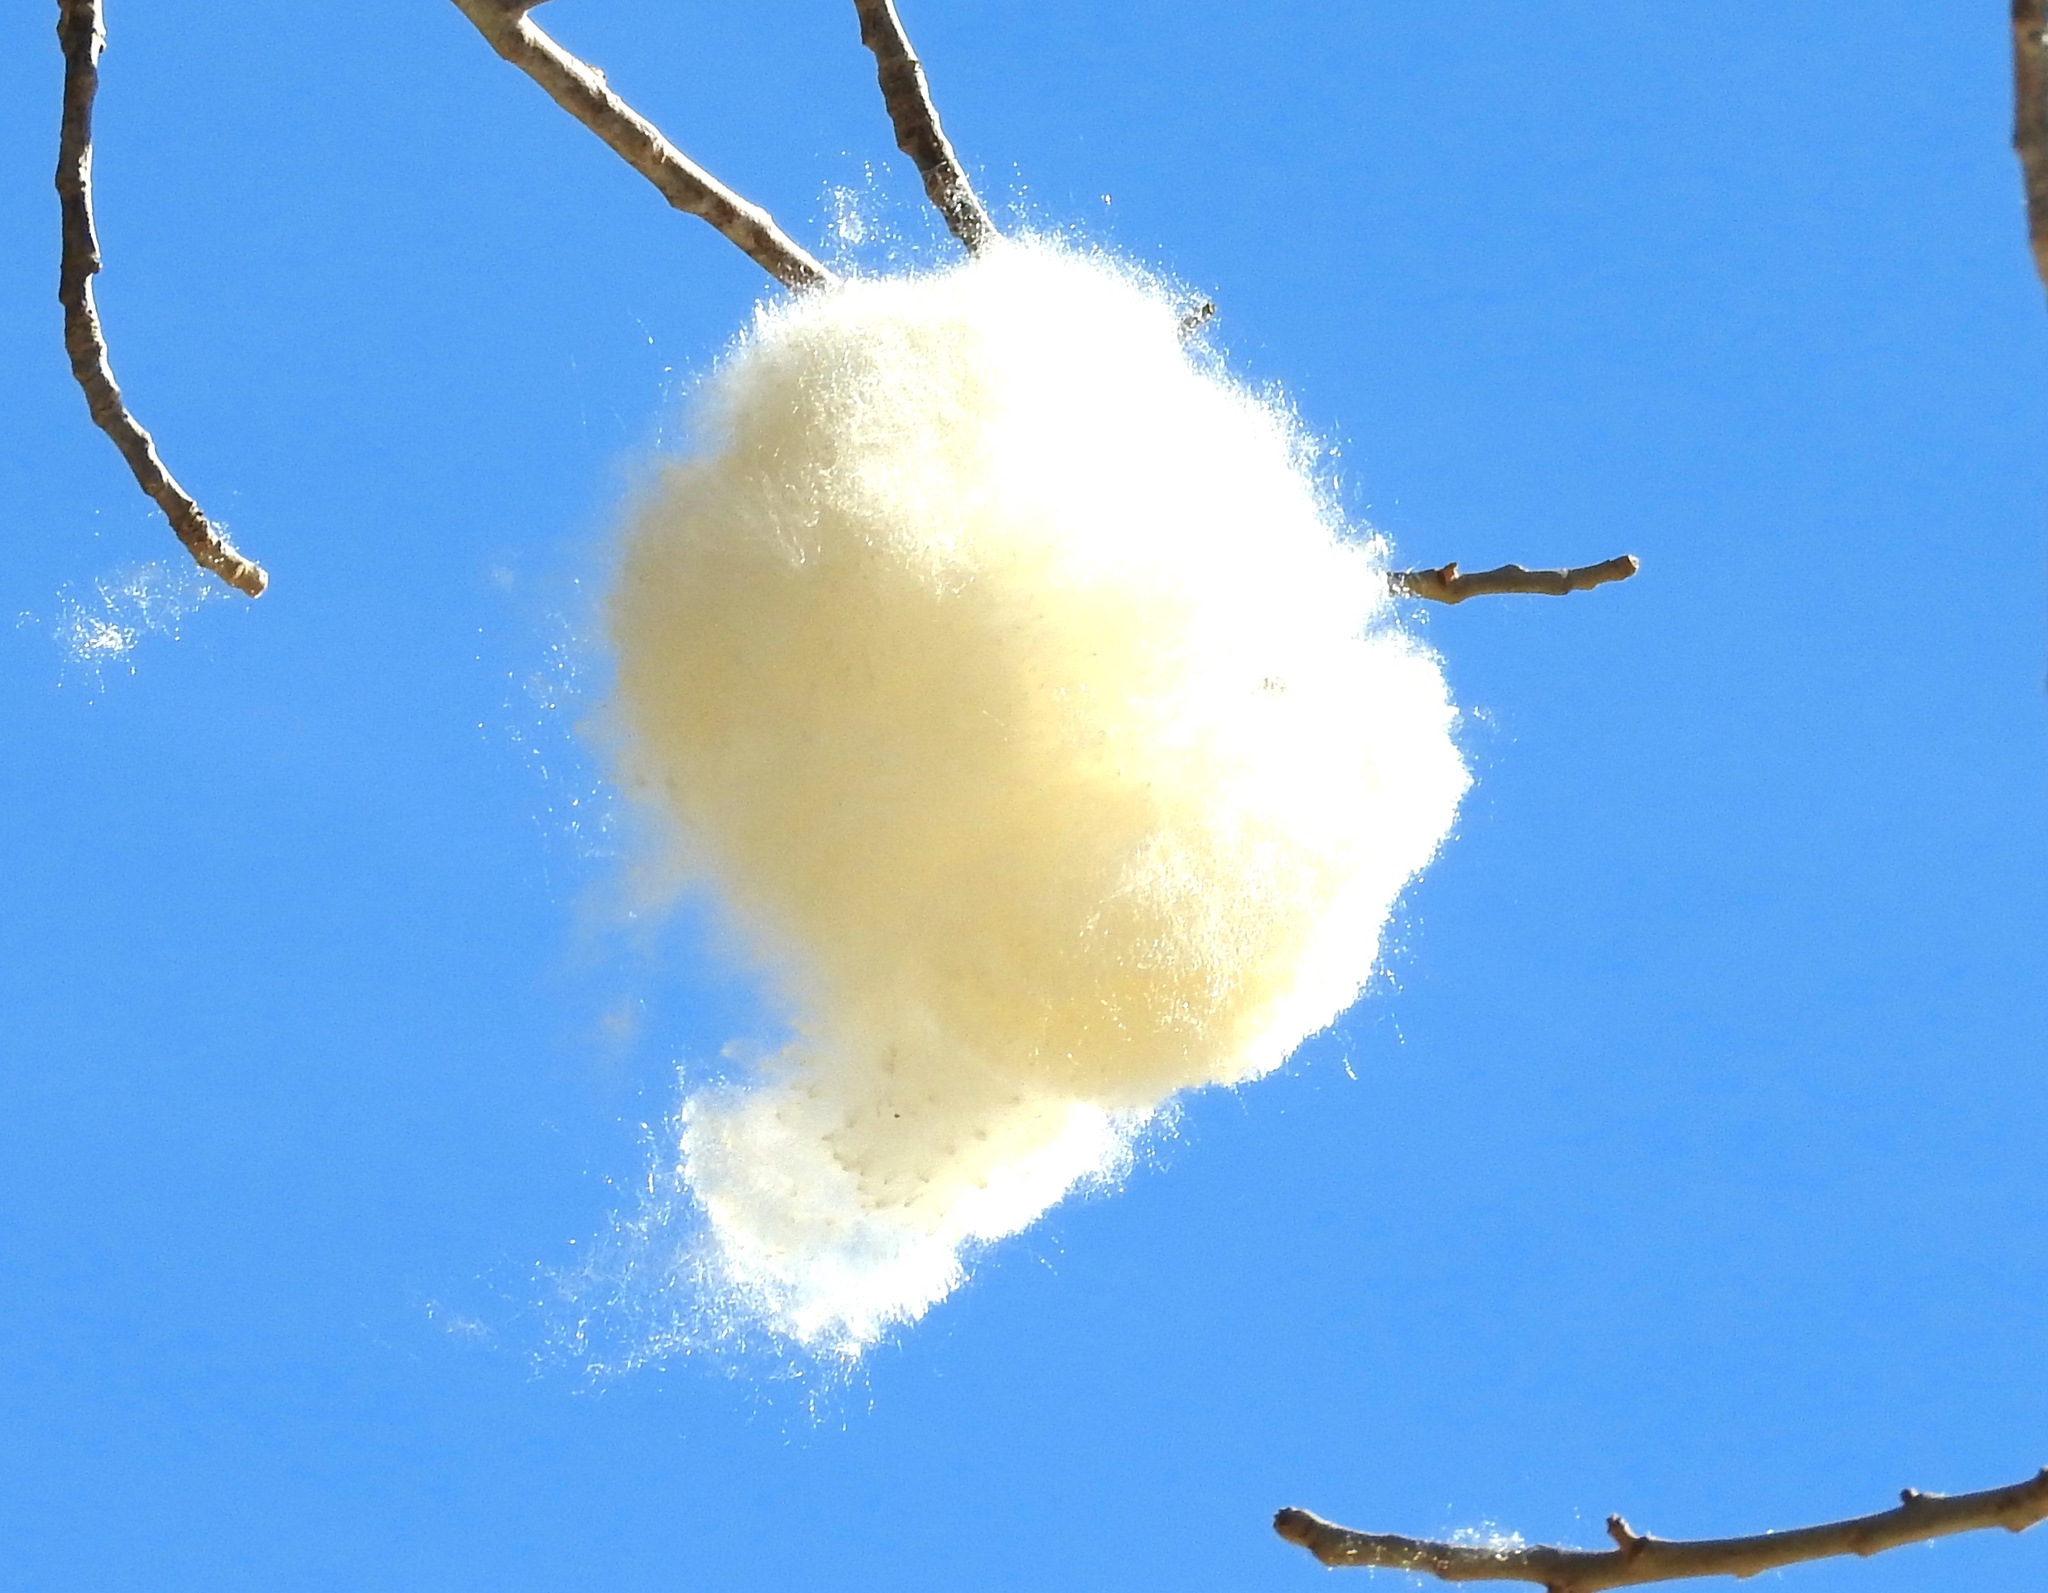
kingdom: Plantae
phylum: Tracheophyta
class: Magnoliopsida
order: Malvales
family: Malvaceae
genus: Ceiba
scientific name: Ceiba aesculifolia
